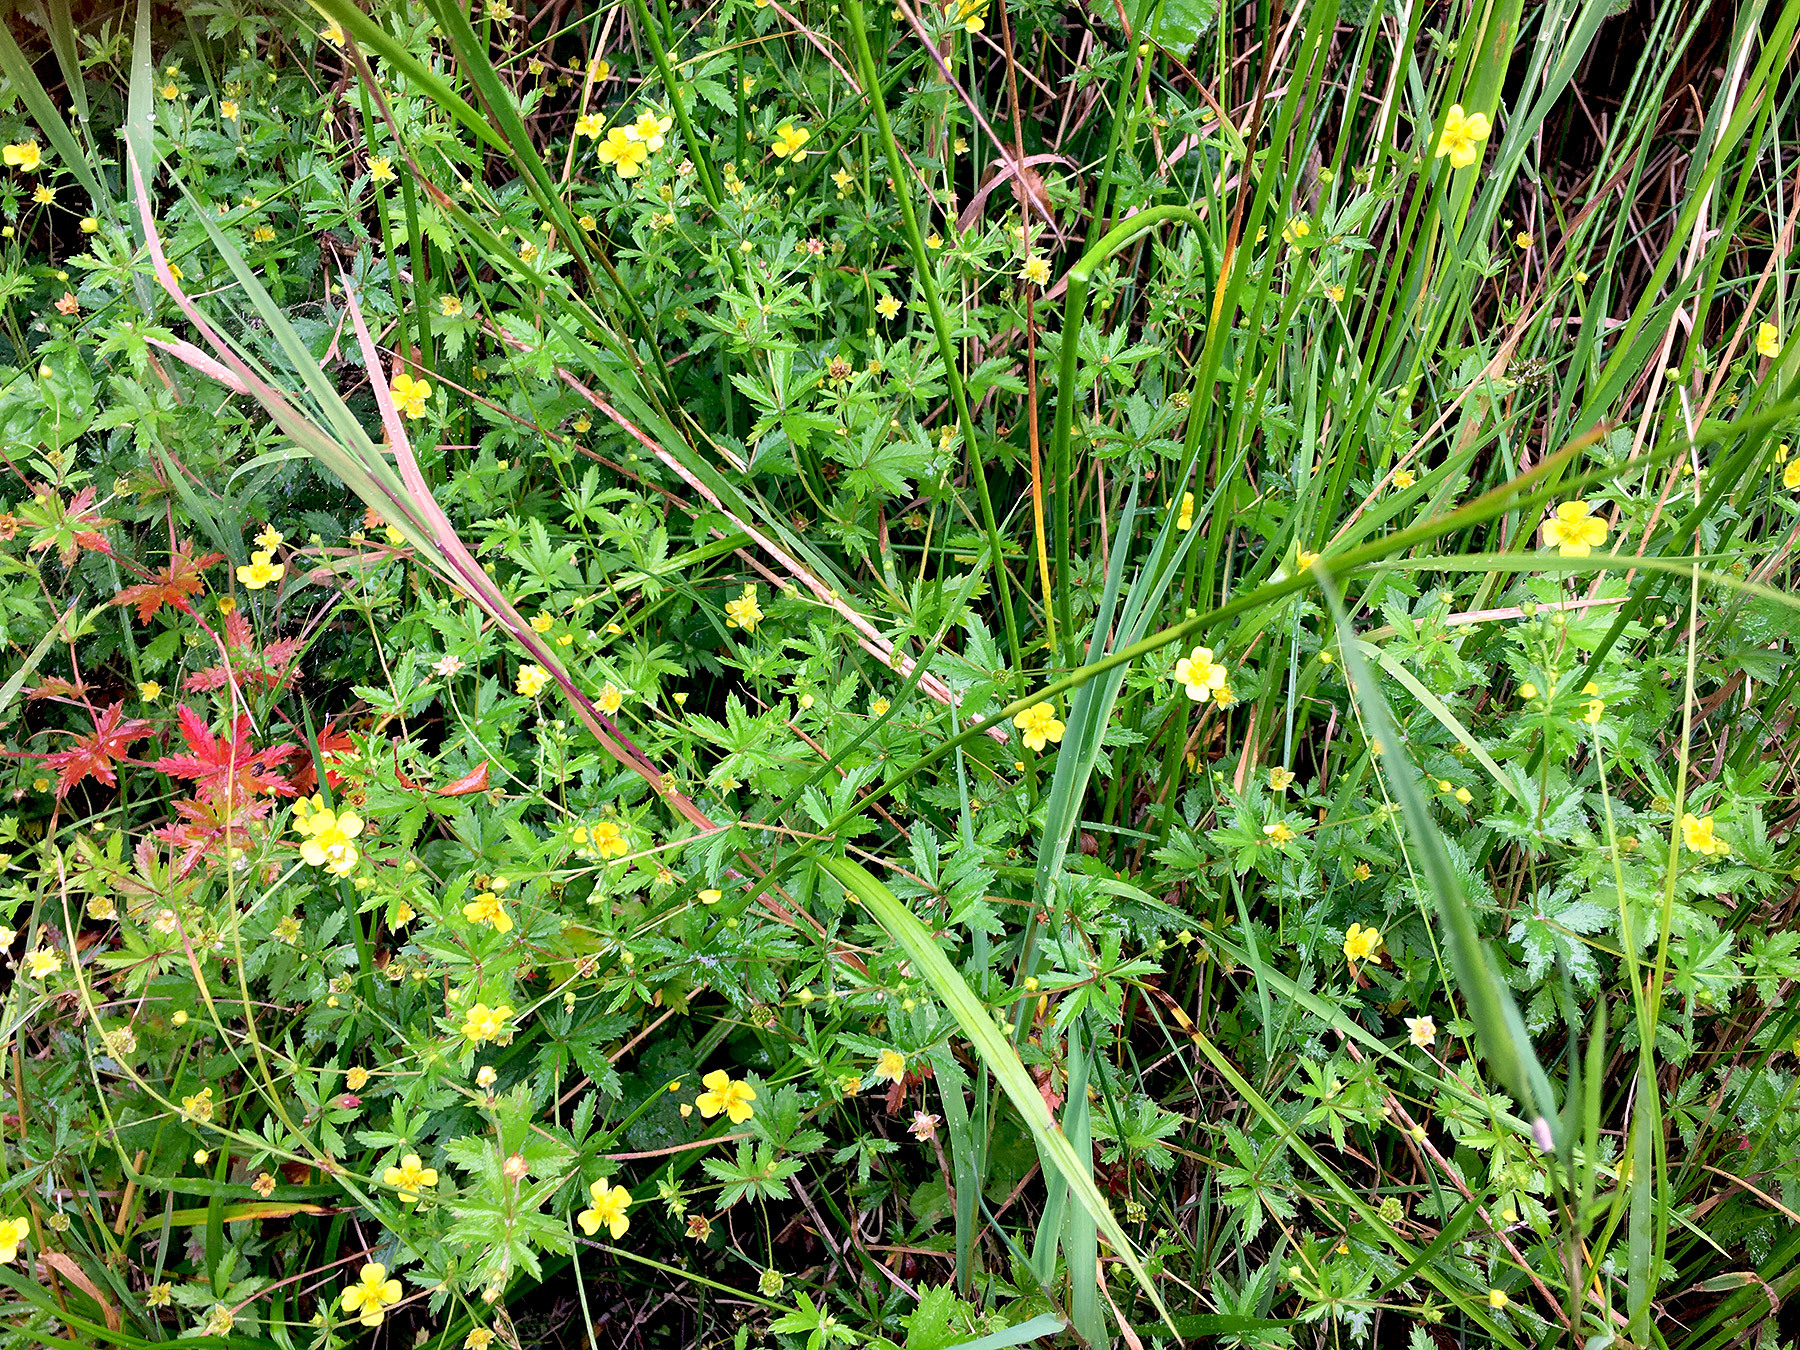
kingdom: Plantae
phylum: Tracheophyta
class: Magnoliopsida
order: Rosales
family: Rosaceae
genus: Potentilla
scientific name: Potentilla erecta
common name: Tormentil
